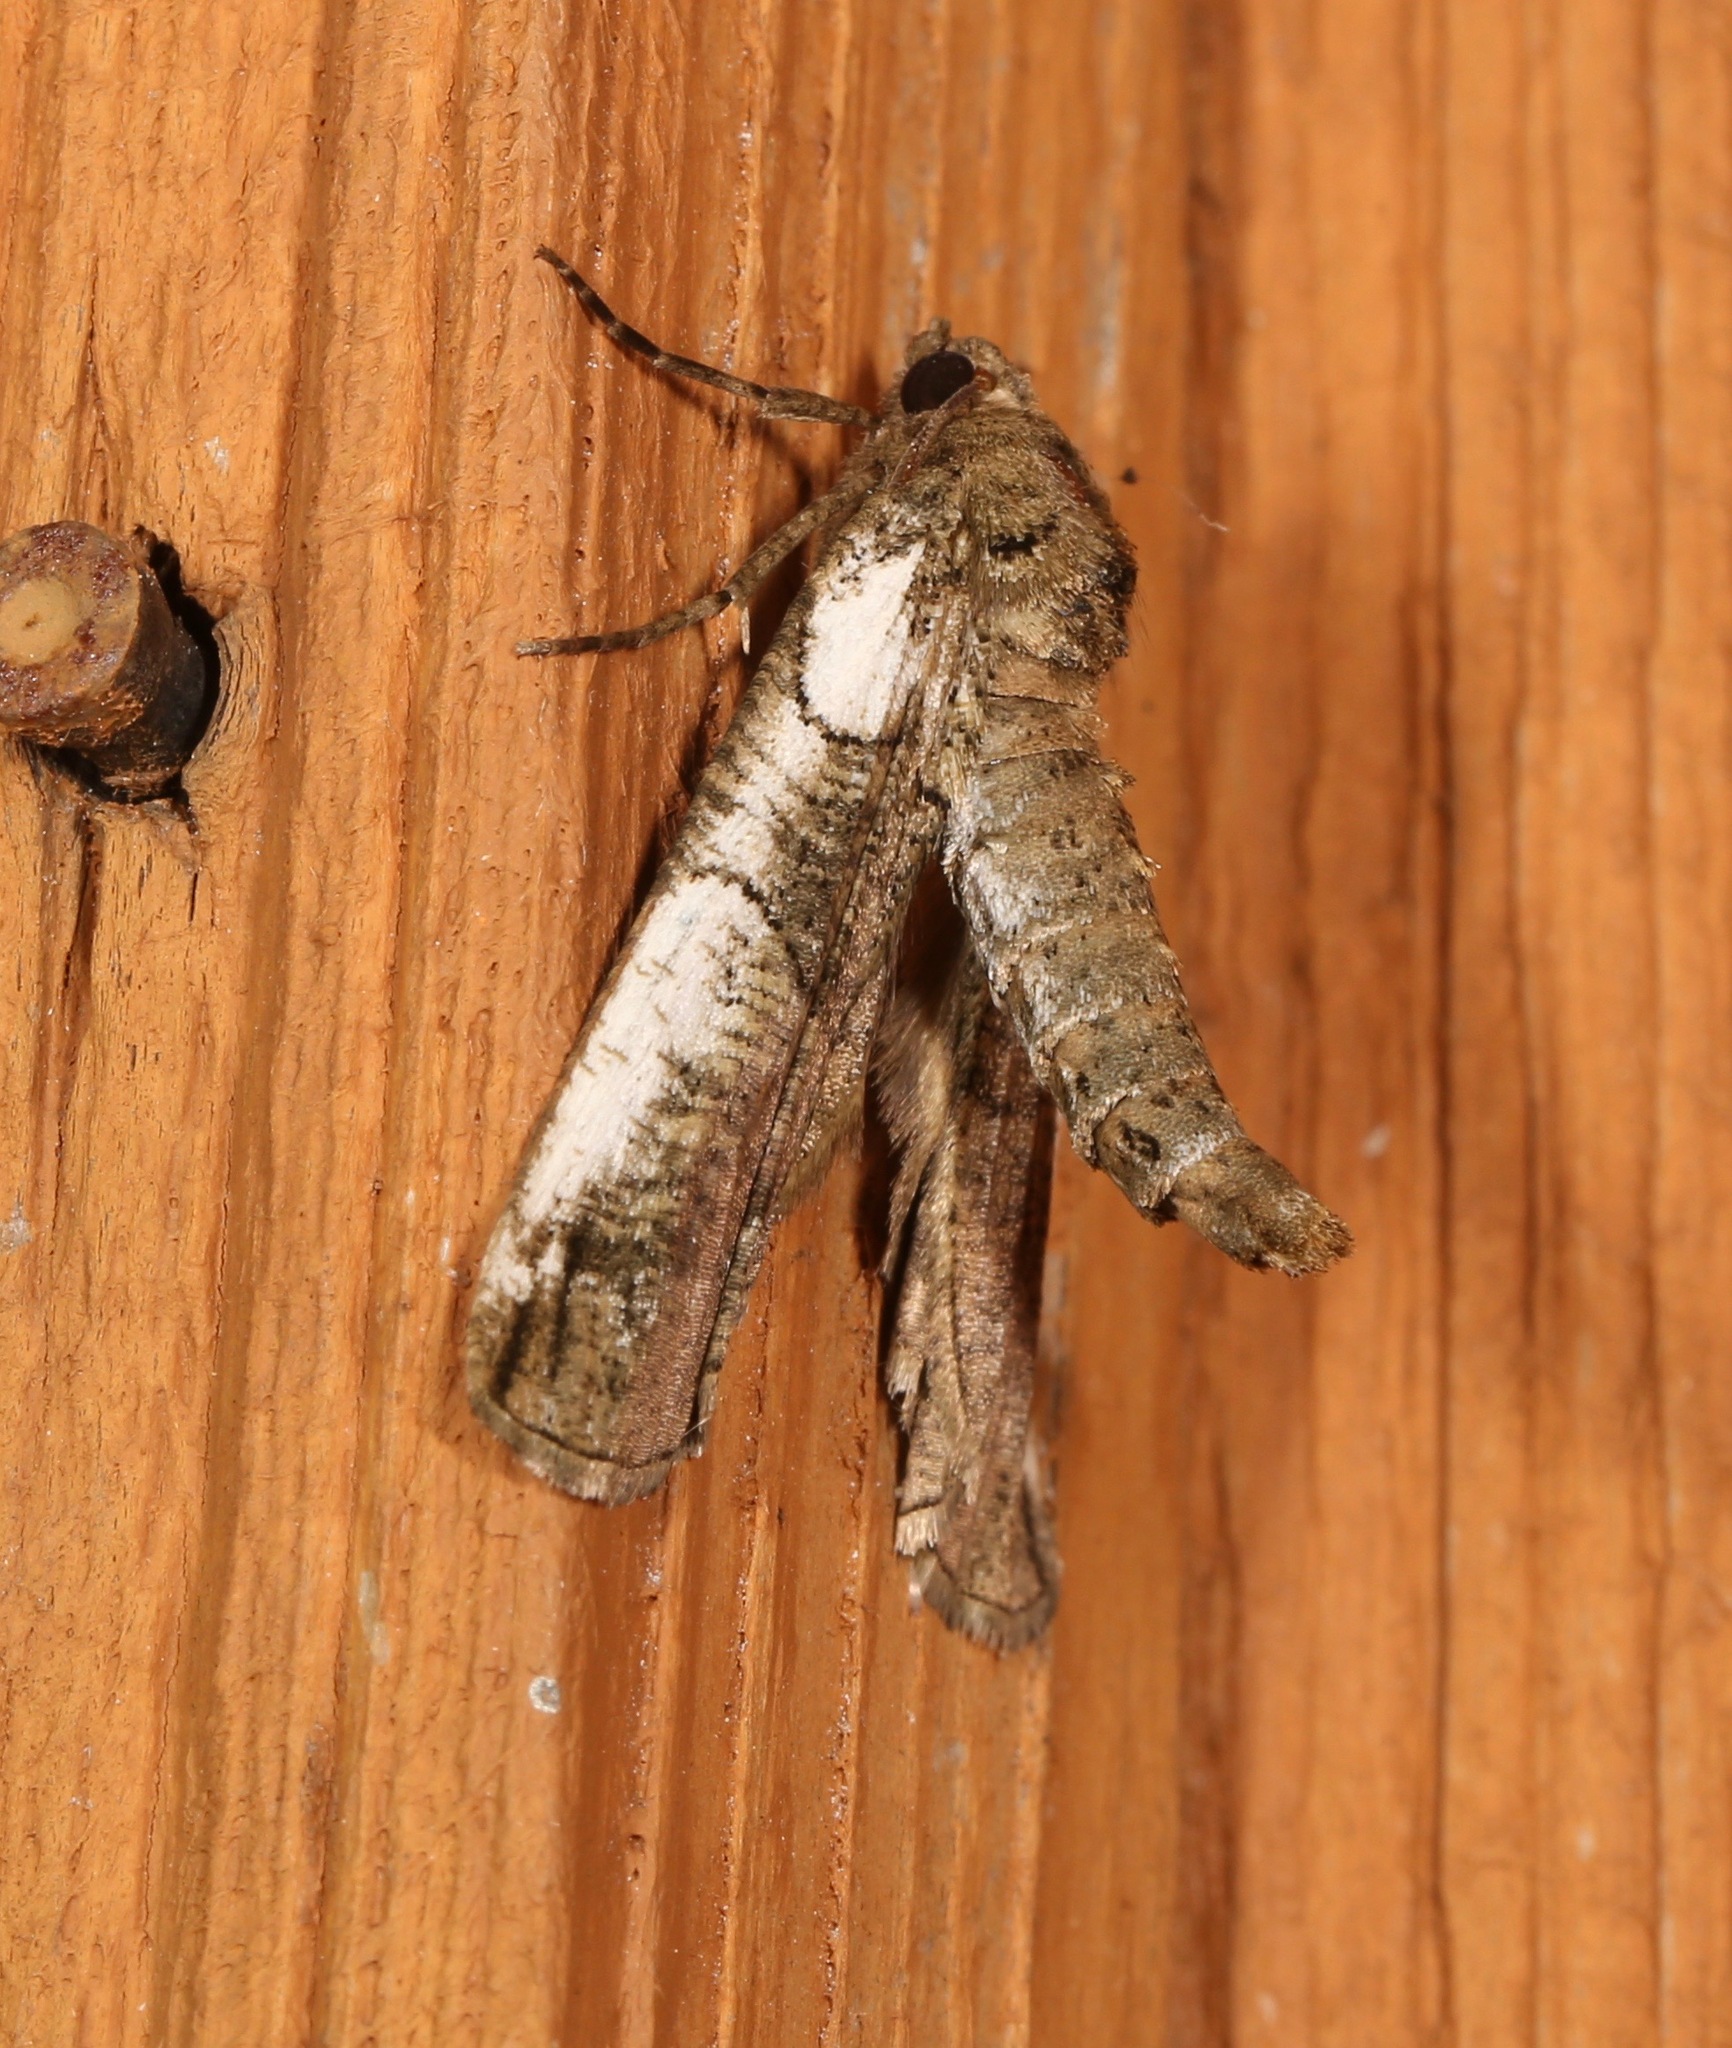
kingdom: Animalia
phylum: Arthropoda
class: Insecta
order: Lepidoptera
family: Geometridae
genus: Ceratonyx
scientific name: Ceratonyx satanaria
